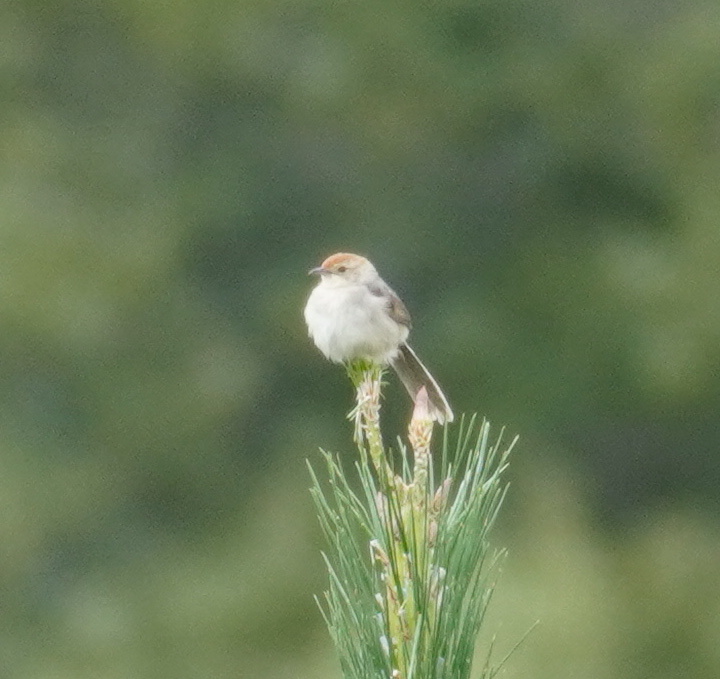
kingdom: Animalia
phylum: Chordata
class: Aves
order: Passeriformes
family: Cisticolidae
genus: Cisticola
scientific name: Cisticola aberrans
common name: Lazy cisticola
